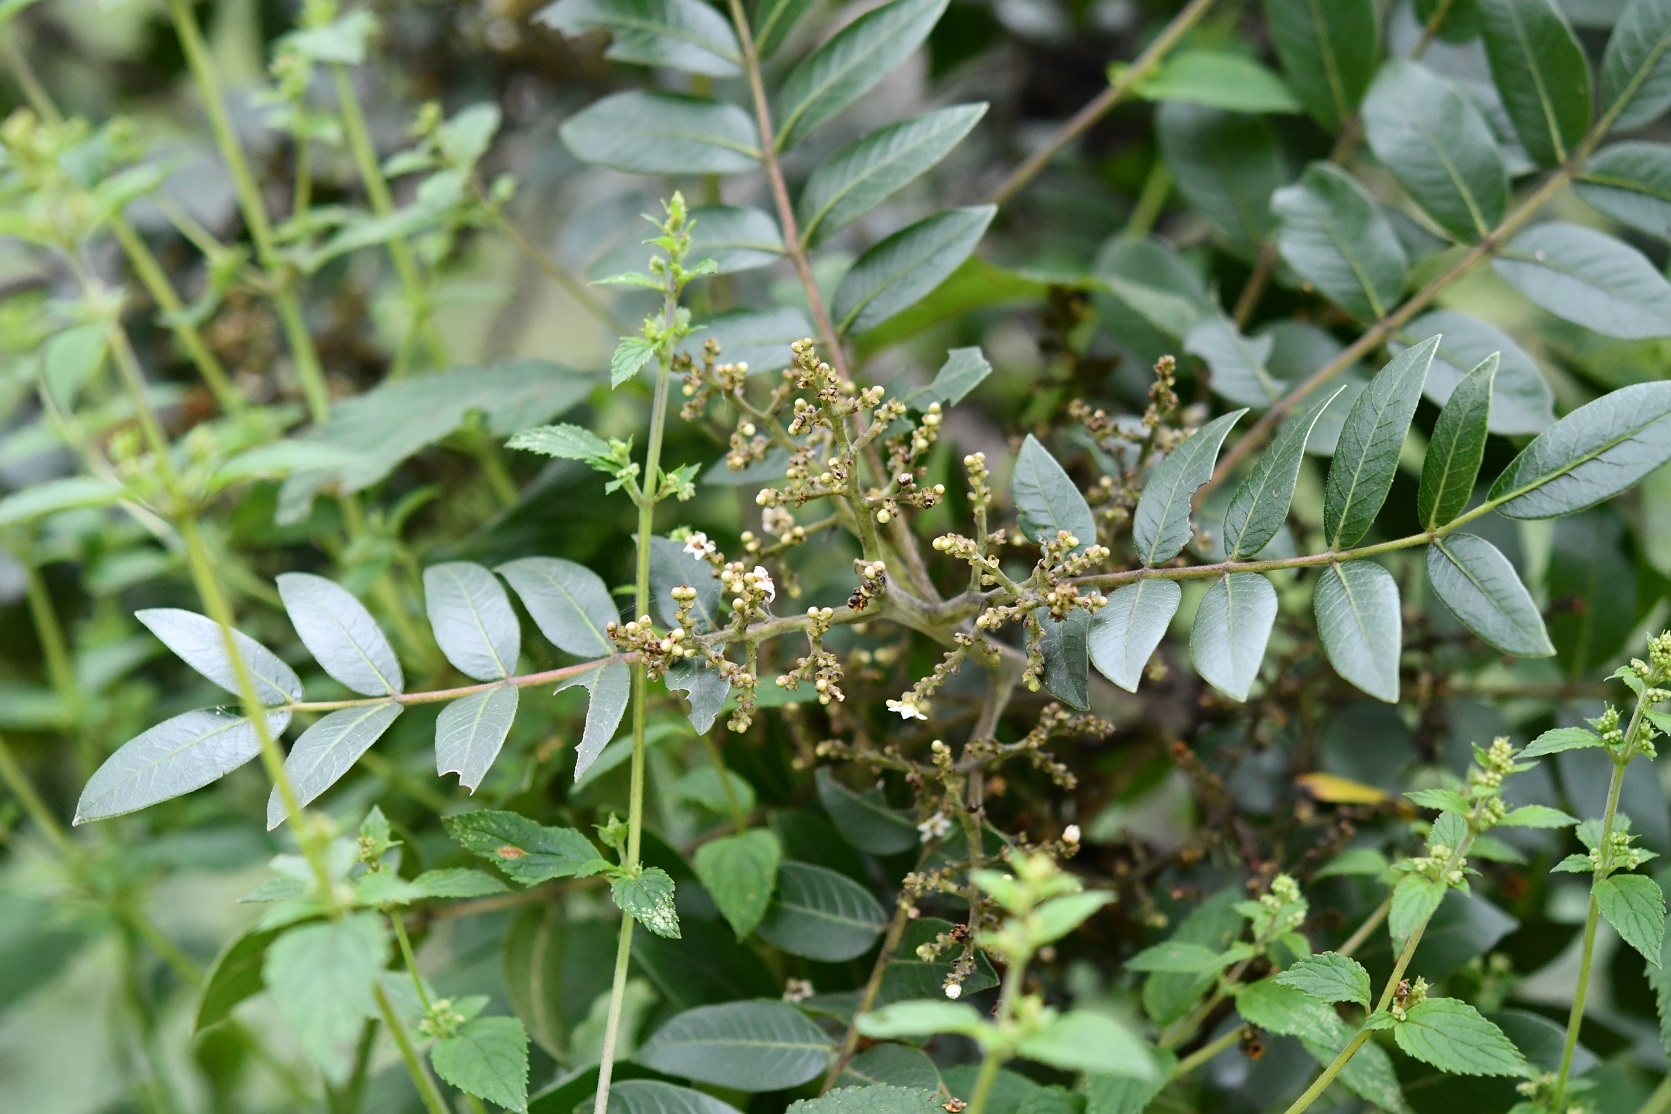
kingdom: Plantae
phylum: Tracheophyta
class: Magnoliopsida
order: Sapindales
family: Anacardiaceae
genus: Rhus
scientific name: Rhus schiedeana
